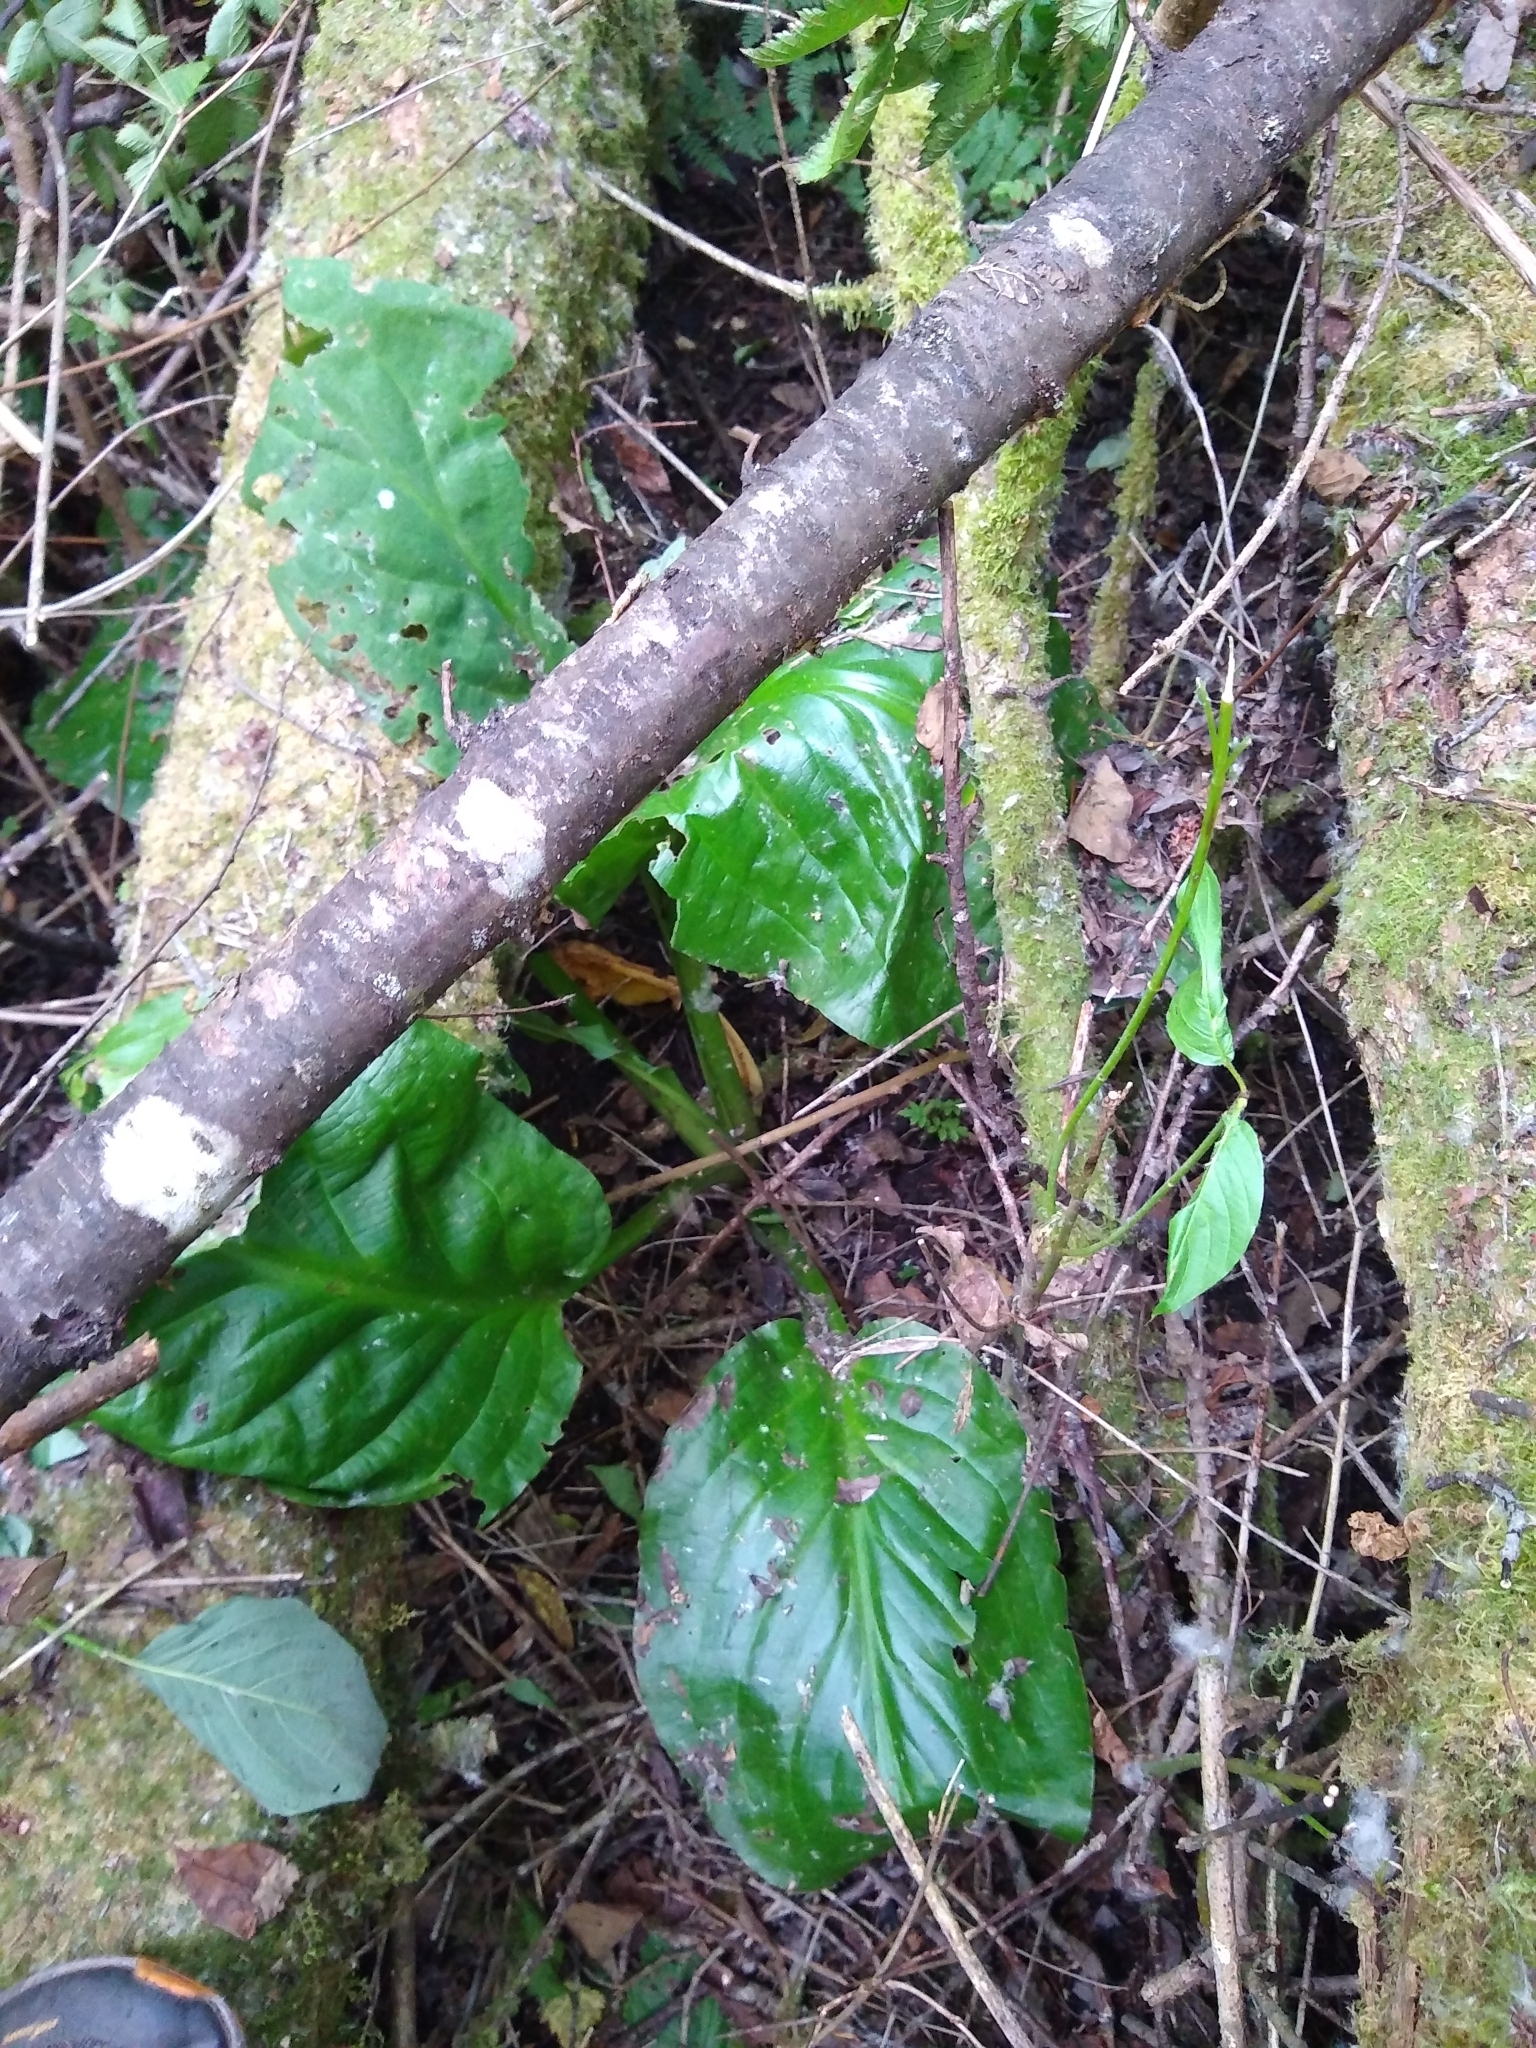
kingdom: Plantae
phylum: Tracheophyta
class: Liliopsida
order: Alismatales
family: Araceae
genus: Lysichiton
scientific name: Lysichiton americanus
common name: American skunk cabbage
